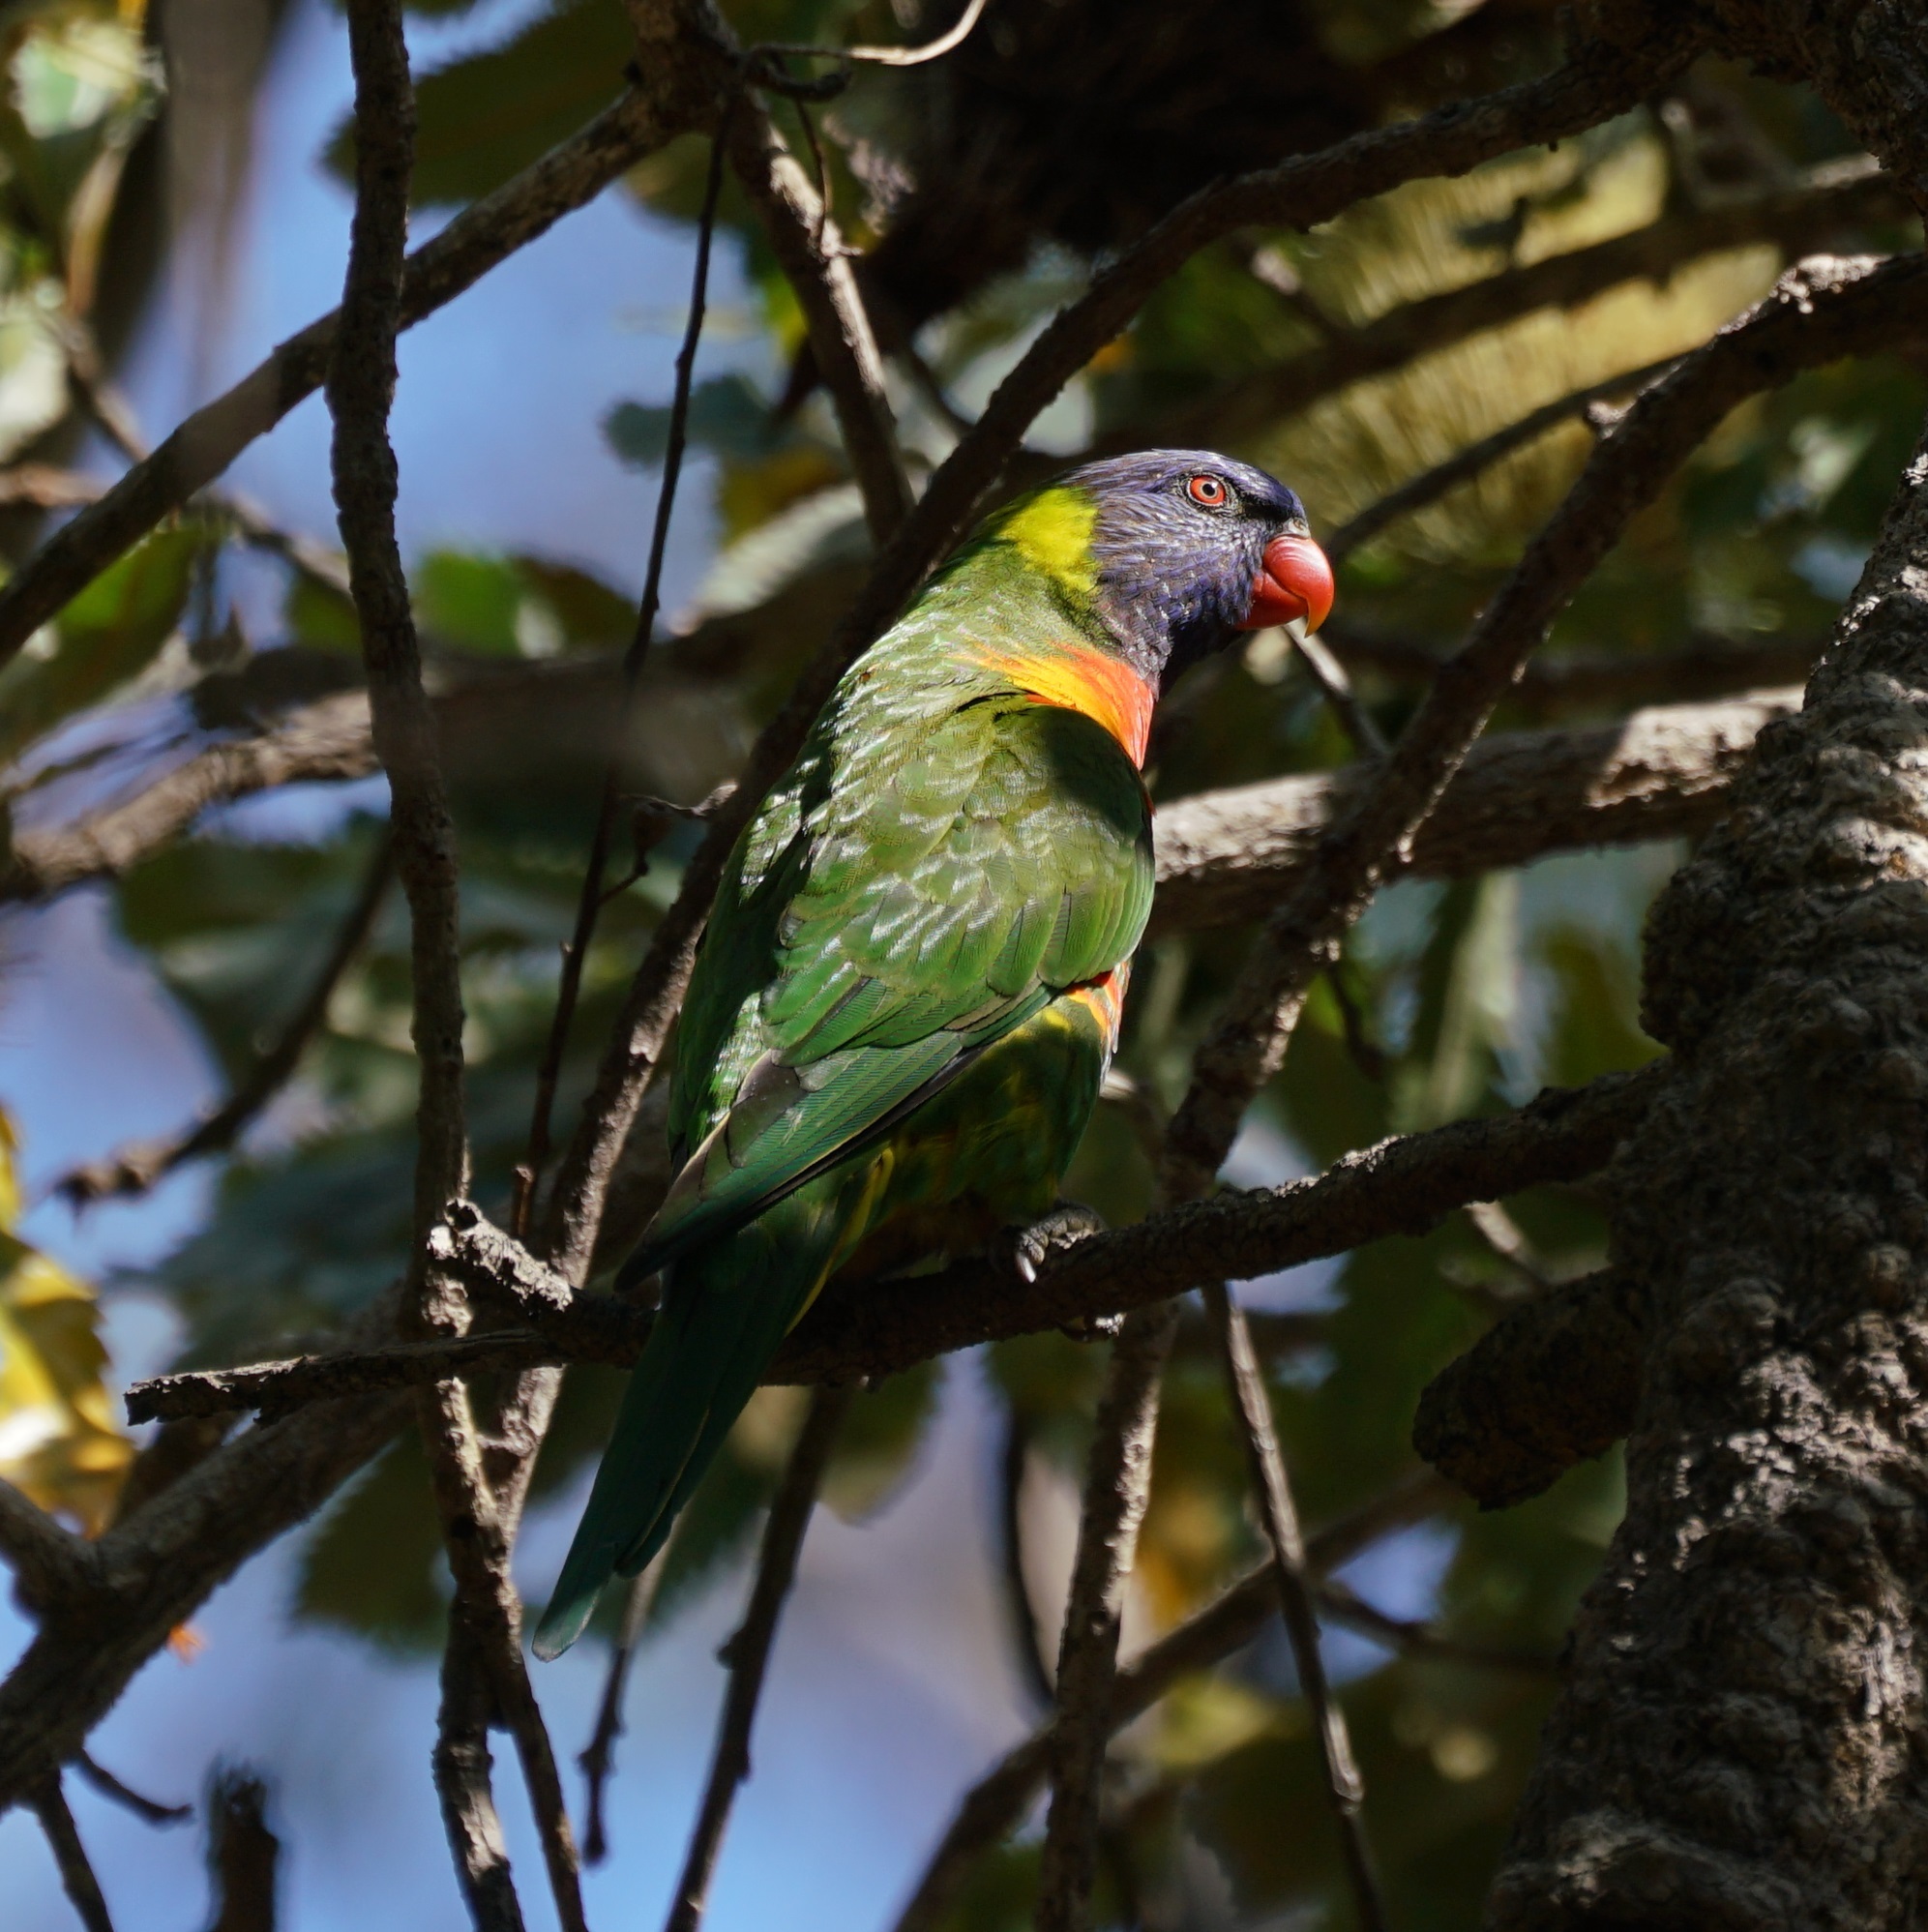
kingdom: Animalia
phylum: Chordata
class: Aves
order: Psittaciformes
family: Psittacidae
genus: Trichoglossus
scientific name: Trichoglossus haematodus
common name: Coconut lorikeet
